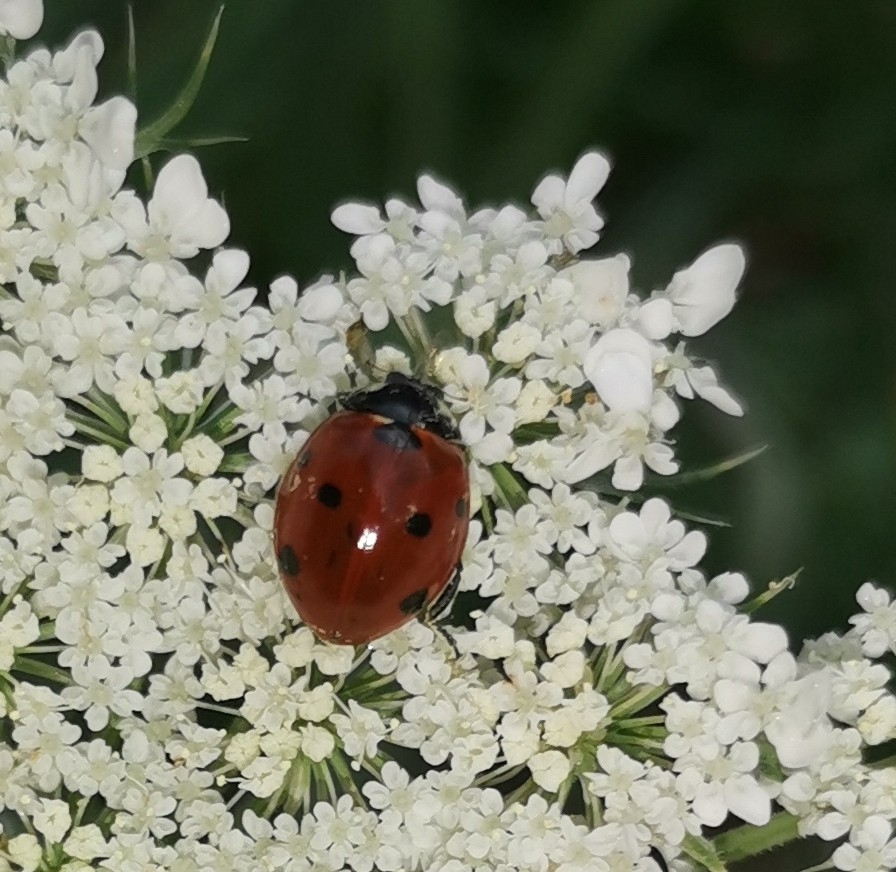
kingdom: Animalia
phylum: Arthropoda
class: Insecta
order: Coleoptera
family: Coccinellidae
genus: Coccinella
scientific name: Coccinella septempunctata
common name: Sevenspotted lady beetle
